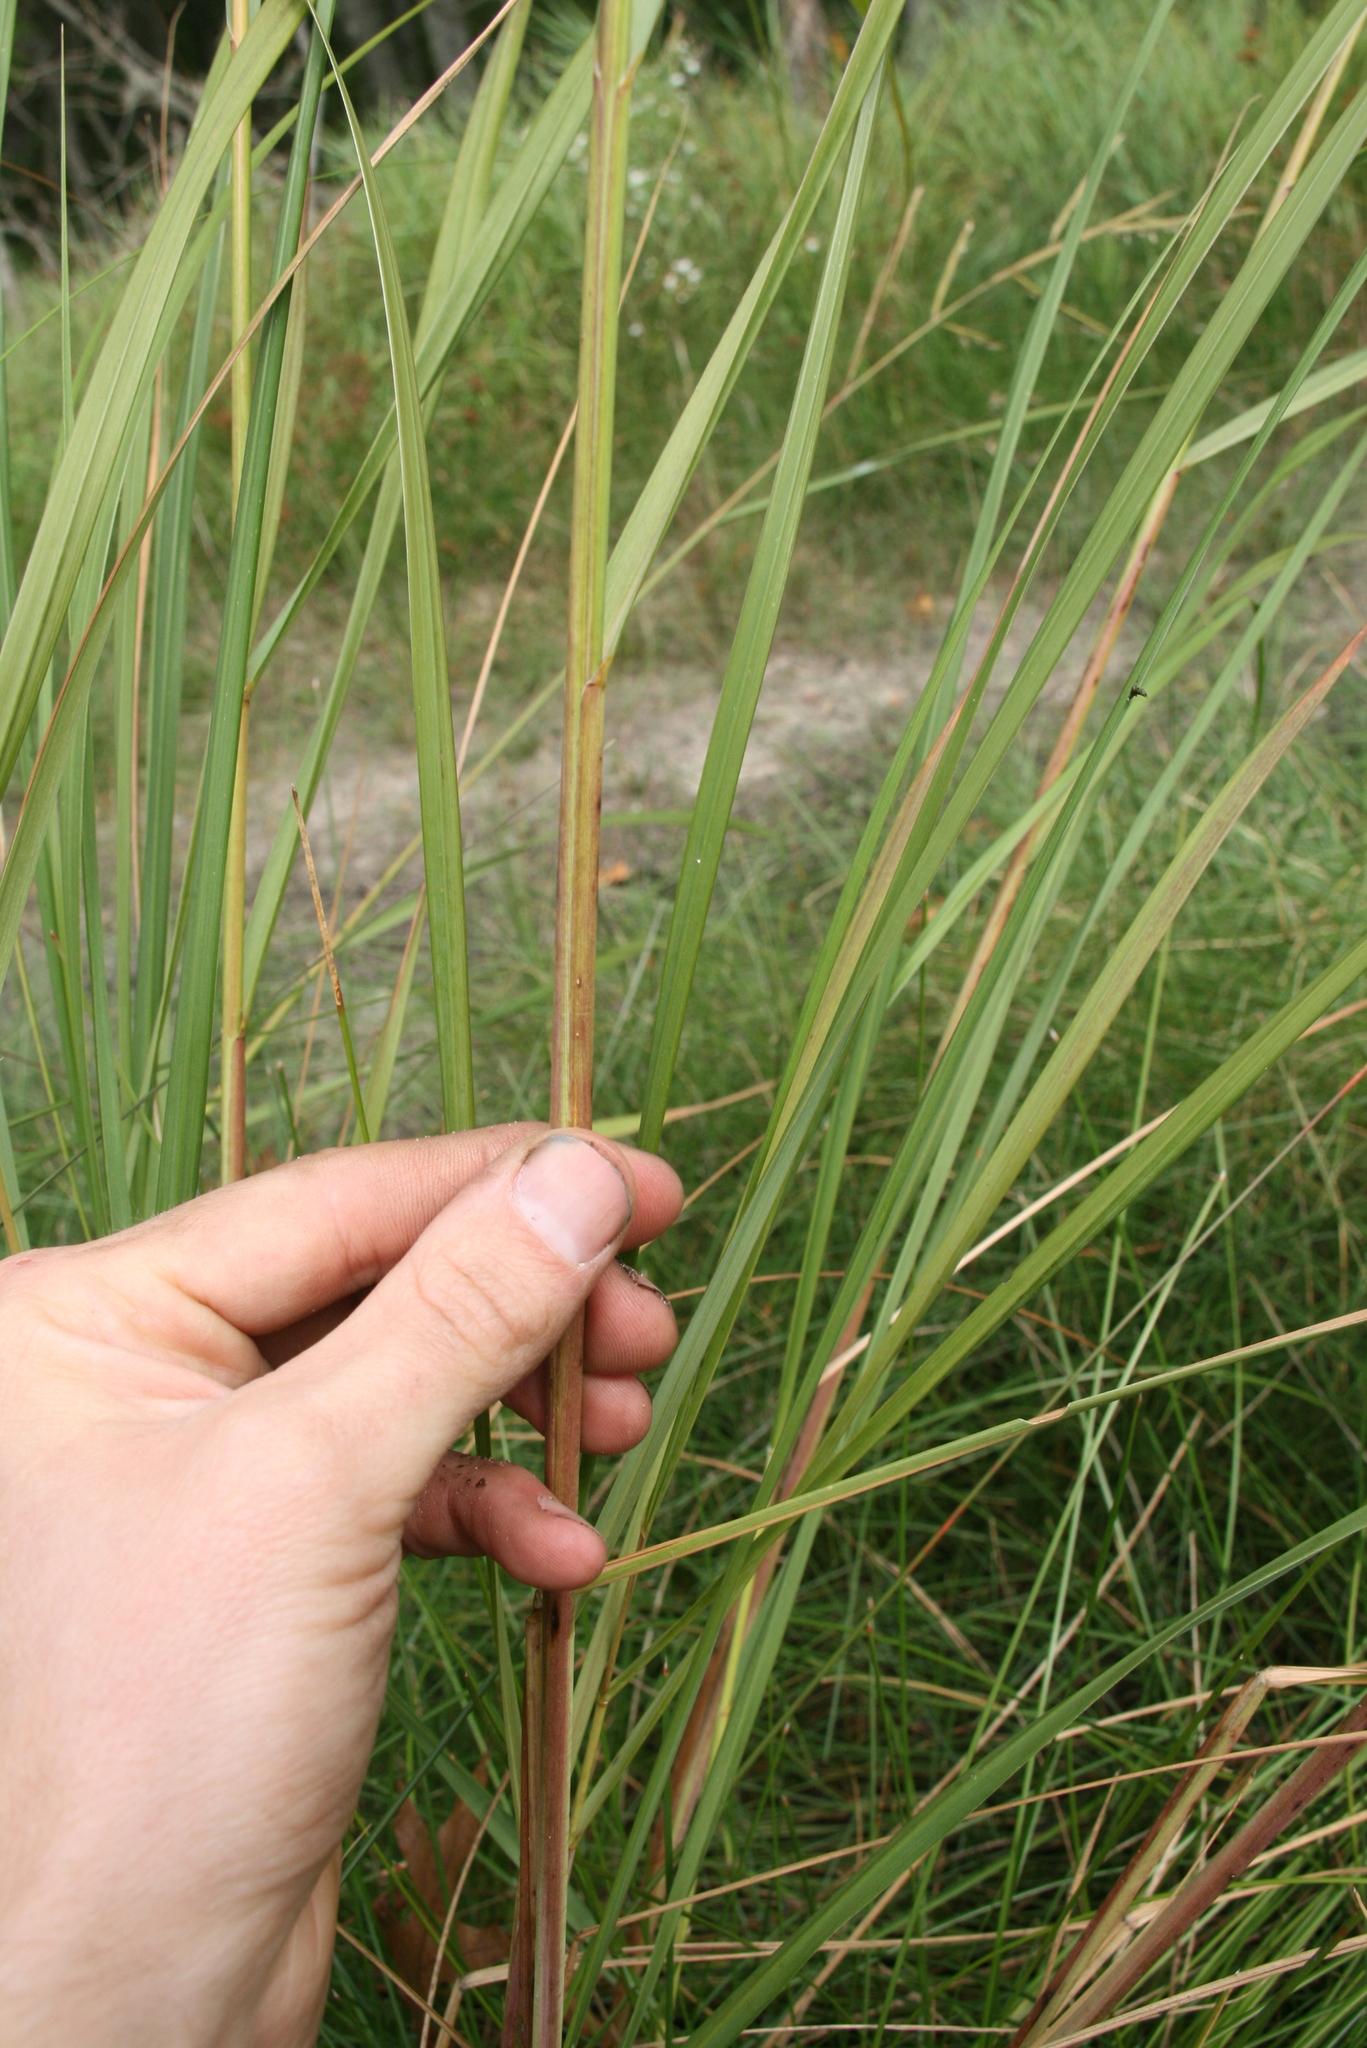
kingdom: Plantae
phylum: Tracheophyta
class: Liliopsida
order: Poales
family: Poaceae
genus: Sporobolus
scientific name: Sporobolus michauxianus
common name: Freshwater cordgrass
